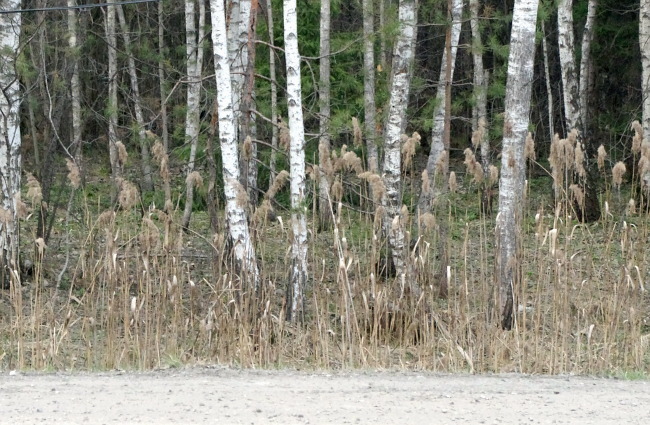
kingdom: Plantae
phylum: Tracheophyta
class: Liliopsida
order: Poales
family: Poaceae
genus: Phragmites
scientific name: Phragmites australis
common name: Common reed
